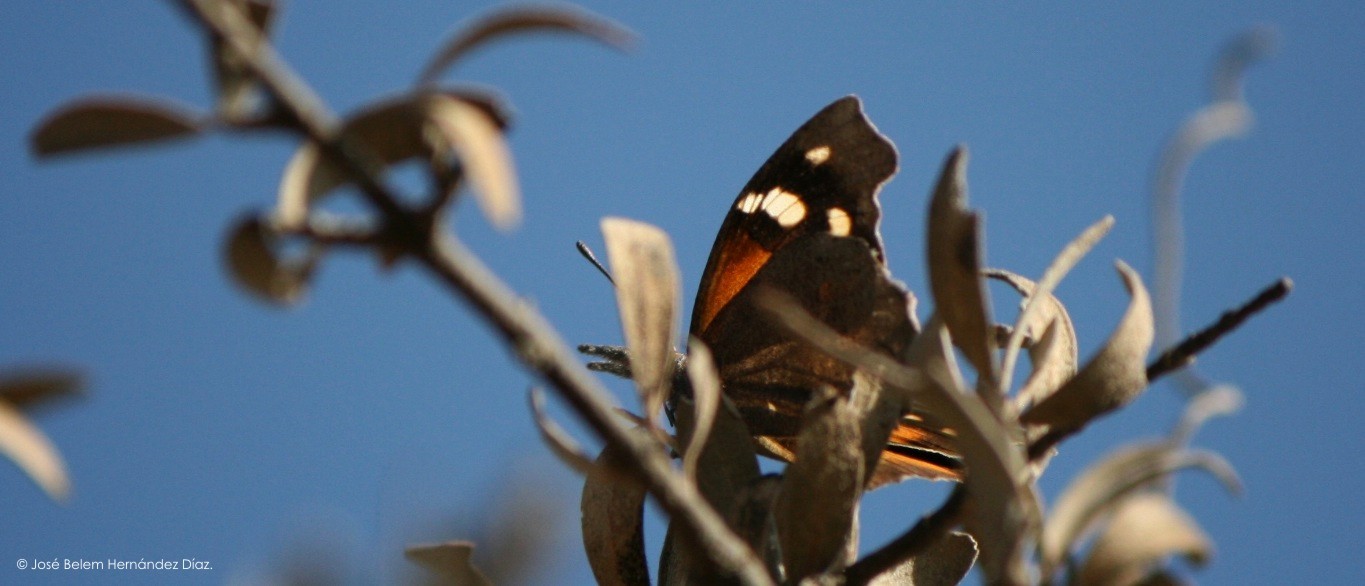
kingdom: Animalia
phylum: Arthropoda
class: Insecta
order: Lepidoptera
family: Nymphalidae
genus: Libytheana
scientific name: Libytheana carinenta
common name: American snout
